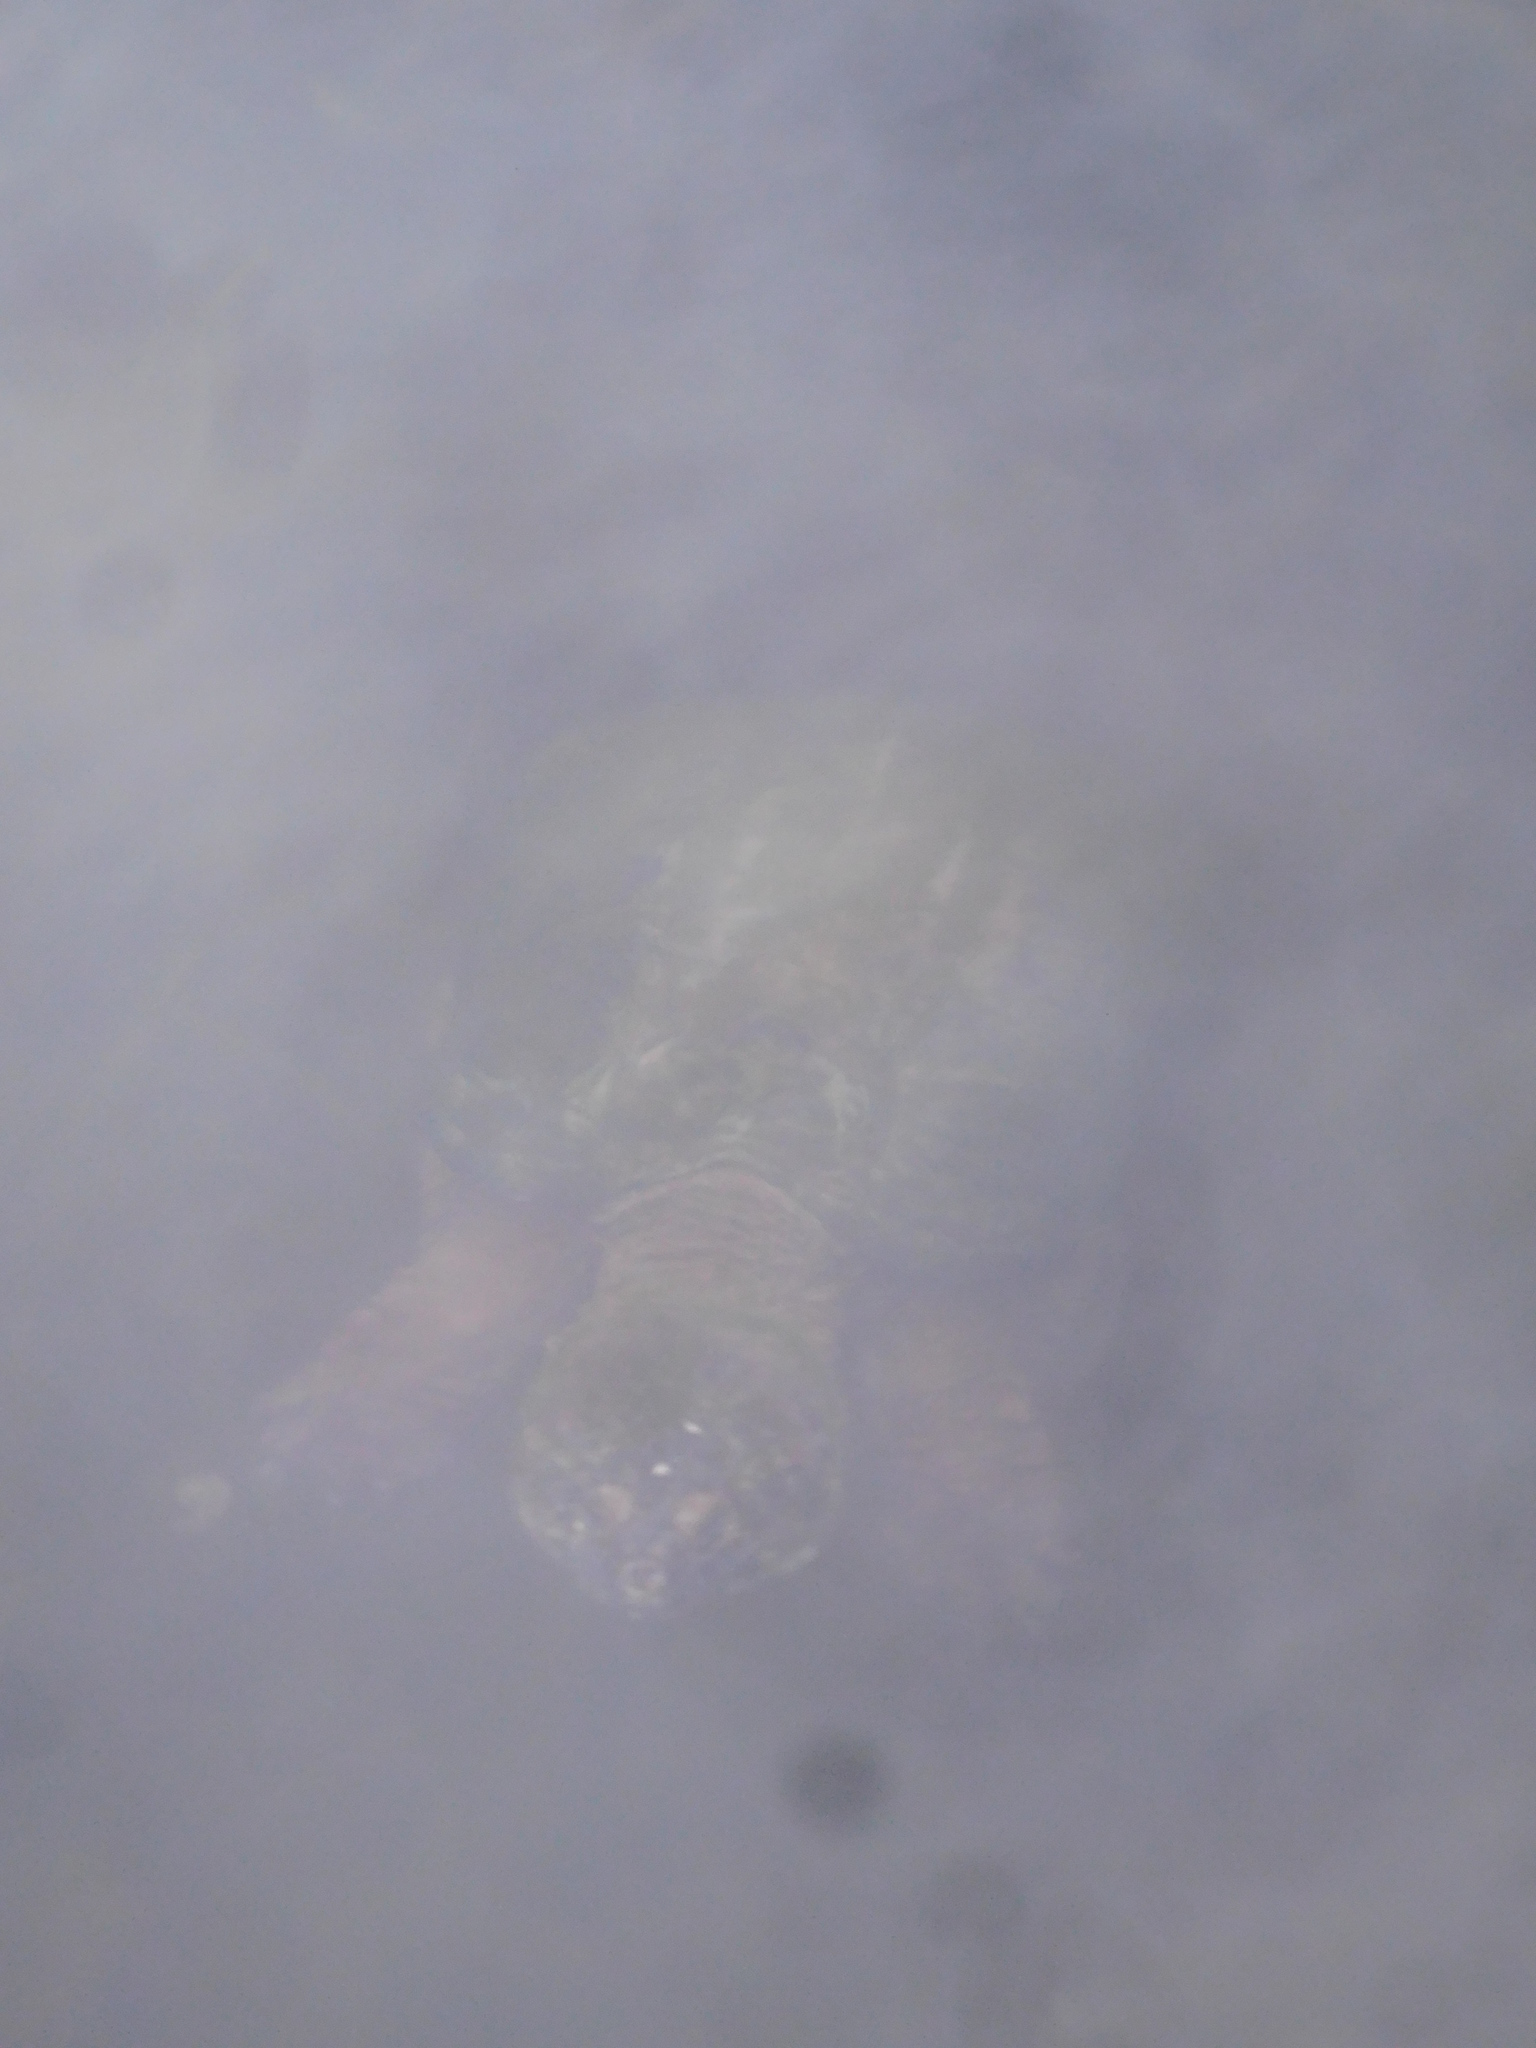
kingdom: Animalia
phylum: Chordata
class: Testudines
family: Chelydridae
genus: Chelydra
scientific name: Chelydra serpentina
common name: Common snapping turtle
